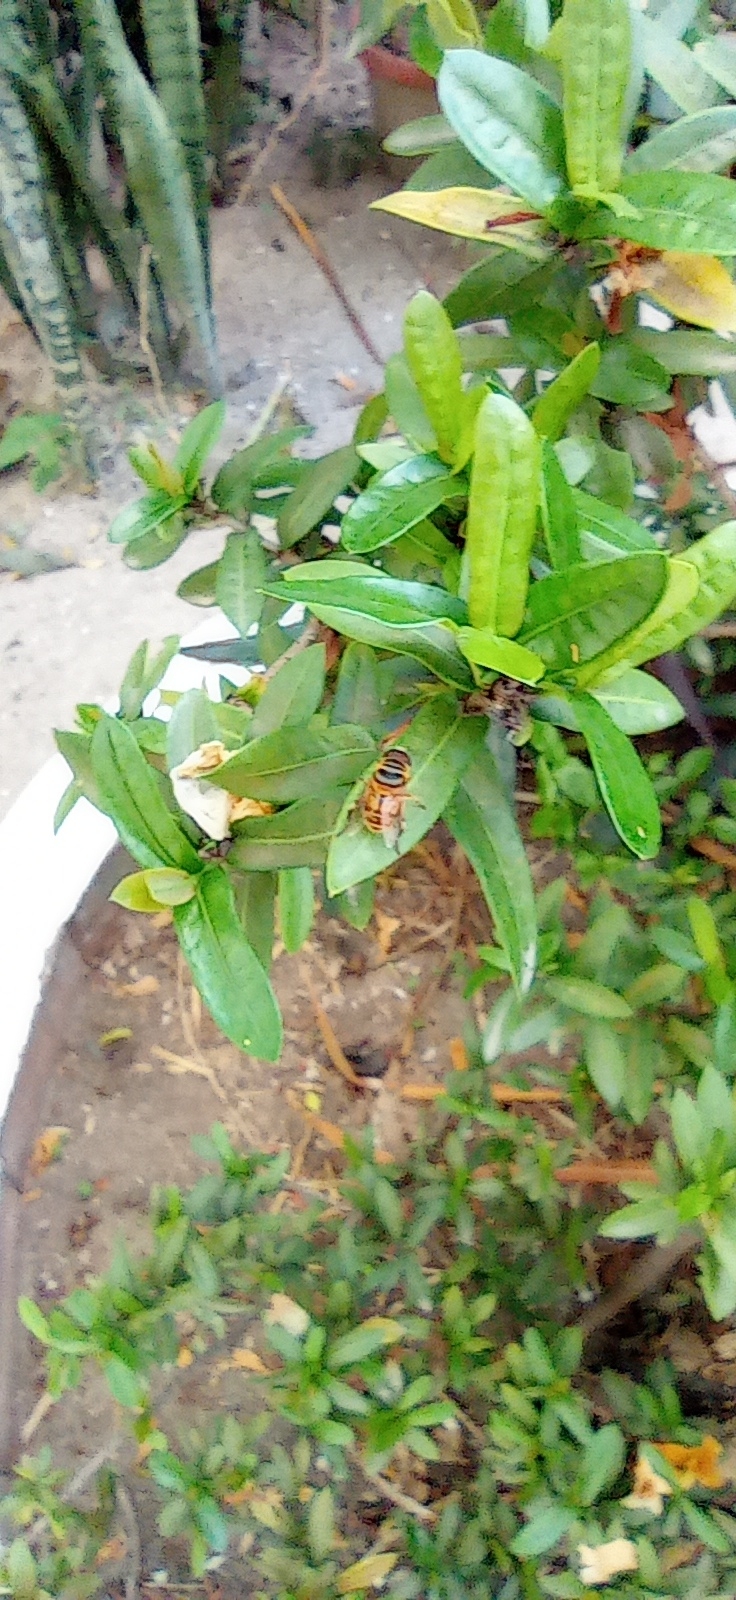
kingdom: Animalia
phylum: Arthropoda
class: Insecta
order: Diptera
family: Syrphidae
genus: Palpada
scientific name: Palpada vinetorum
